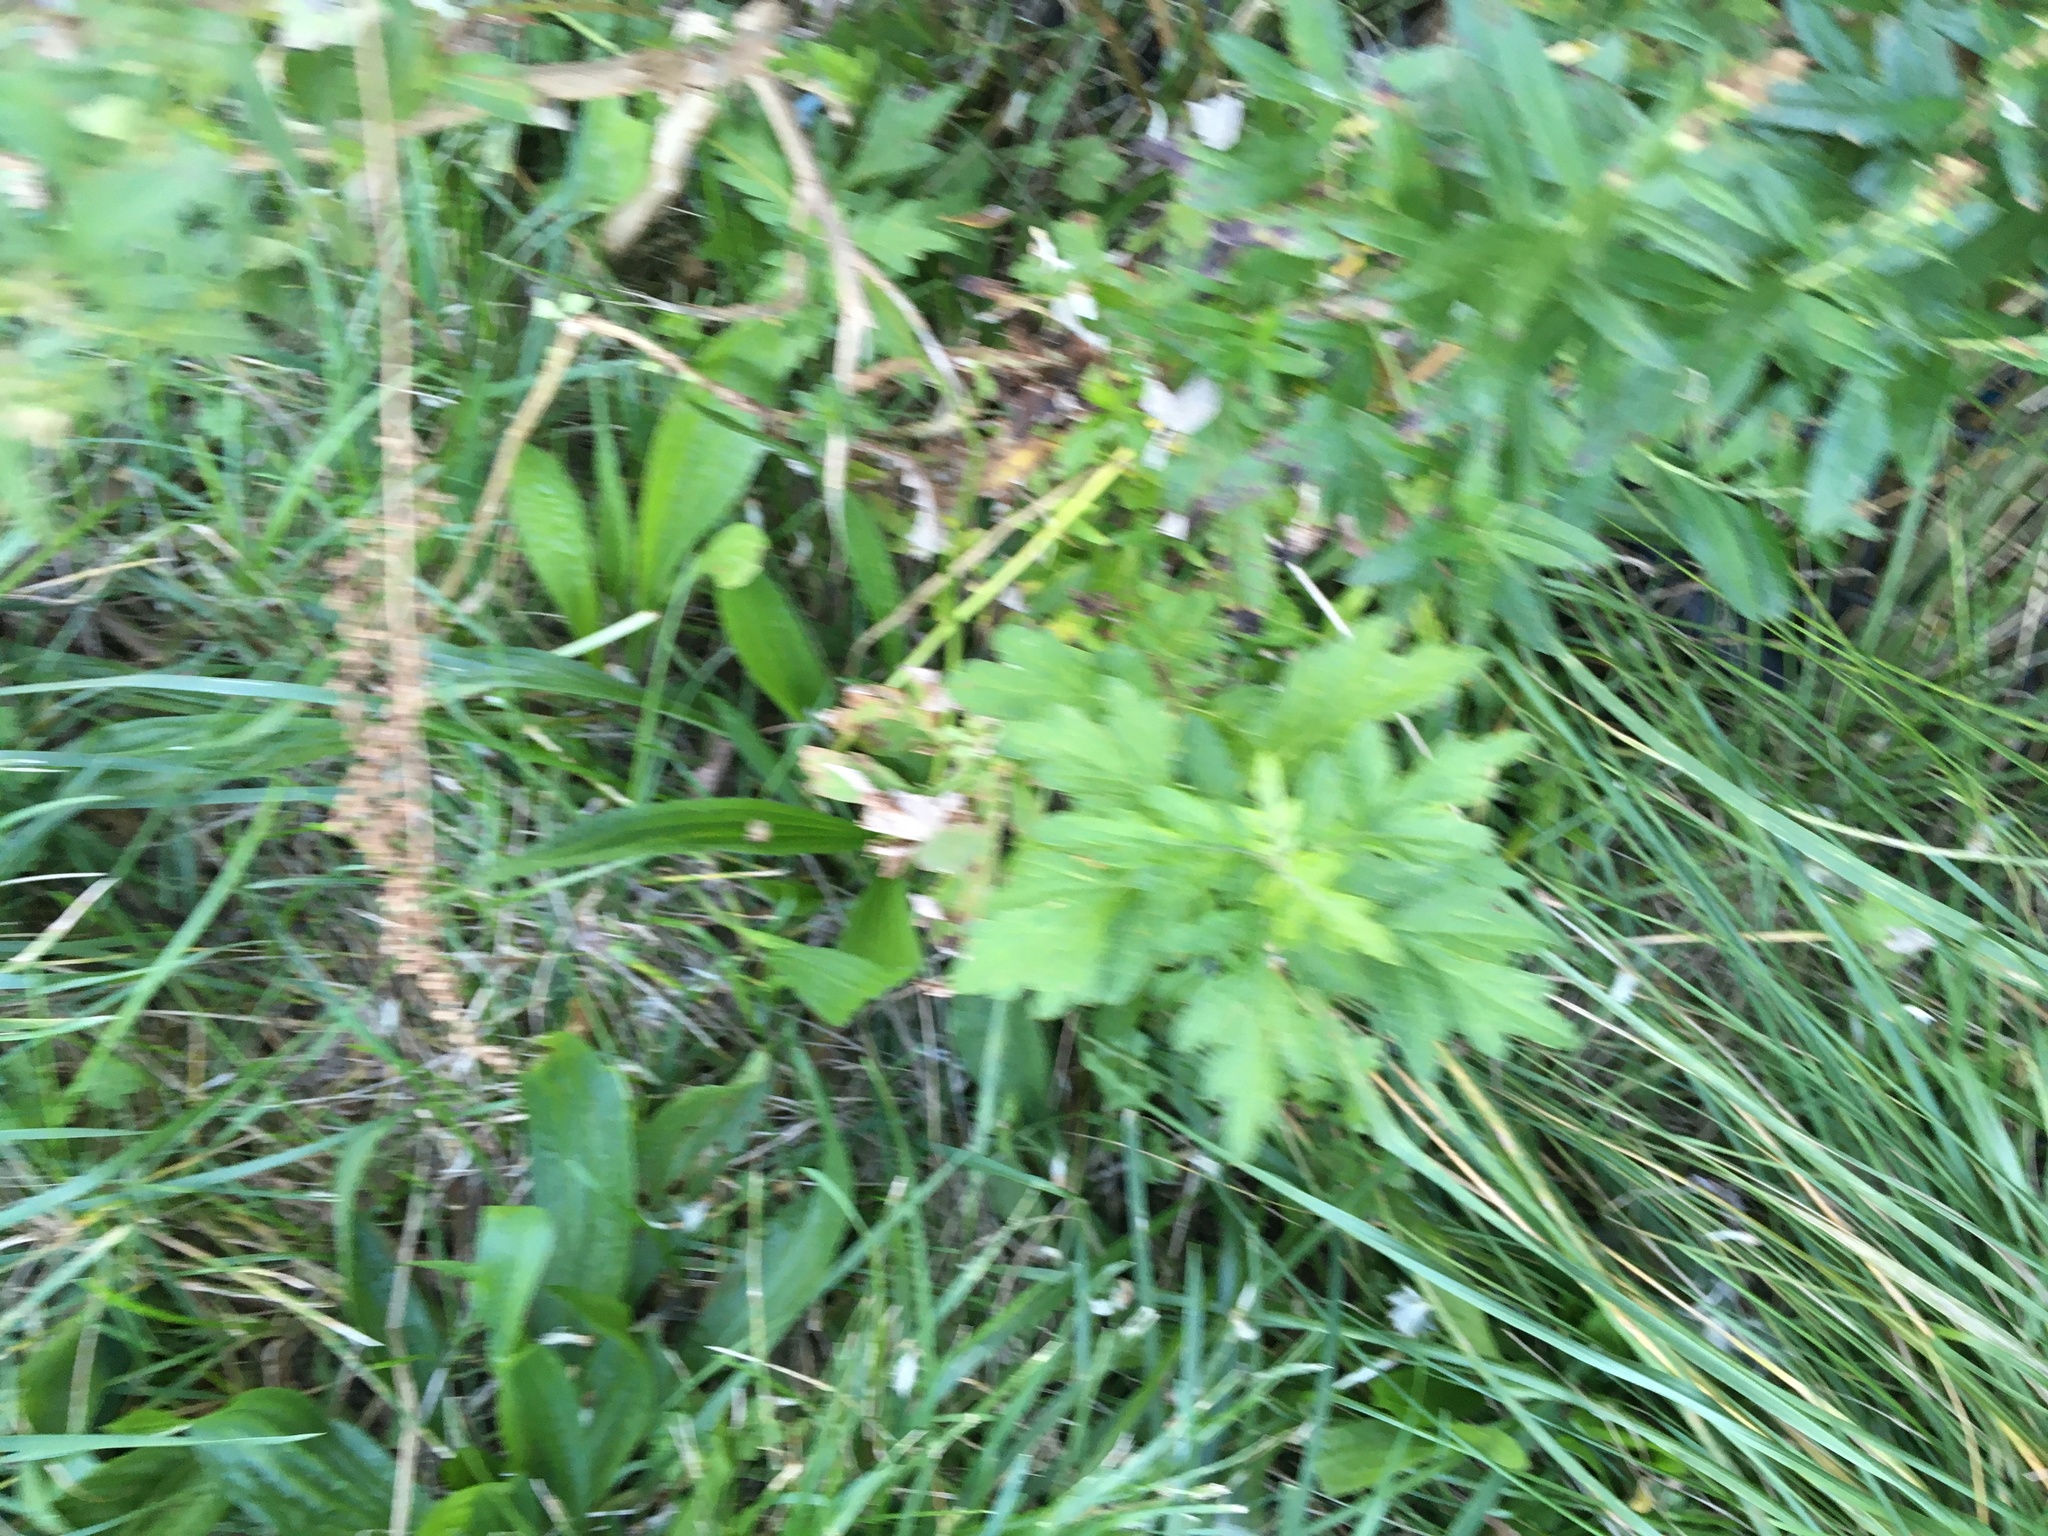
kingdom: Plantae
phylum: Tracheophyta
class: Magnoliopsida
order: Asterales
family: Asteraceae
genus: Artemisia
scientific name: Artemisia vulgaris
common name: Mugwort
